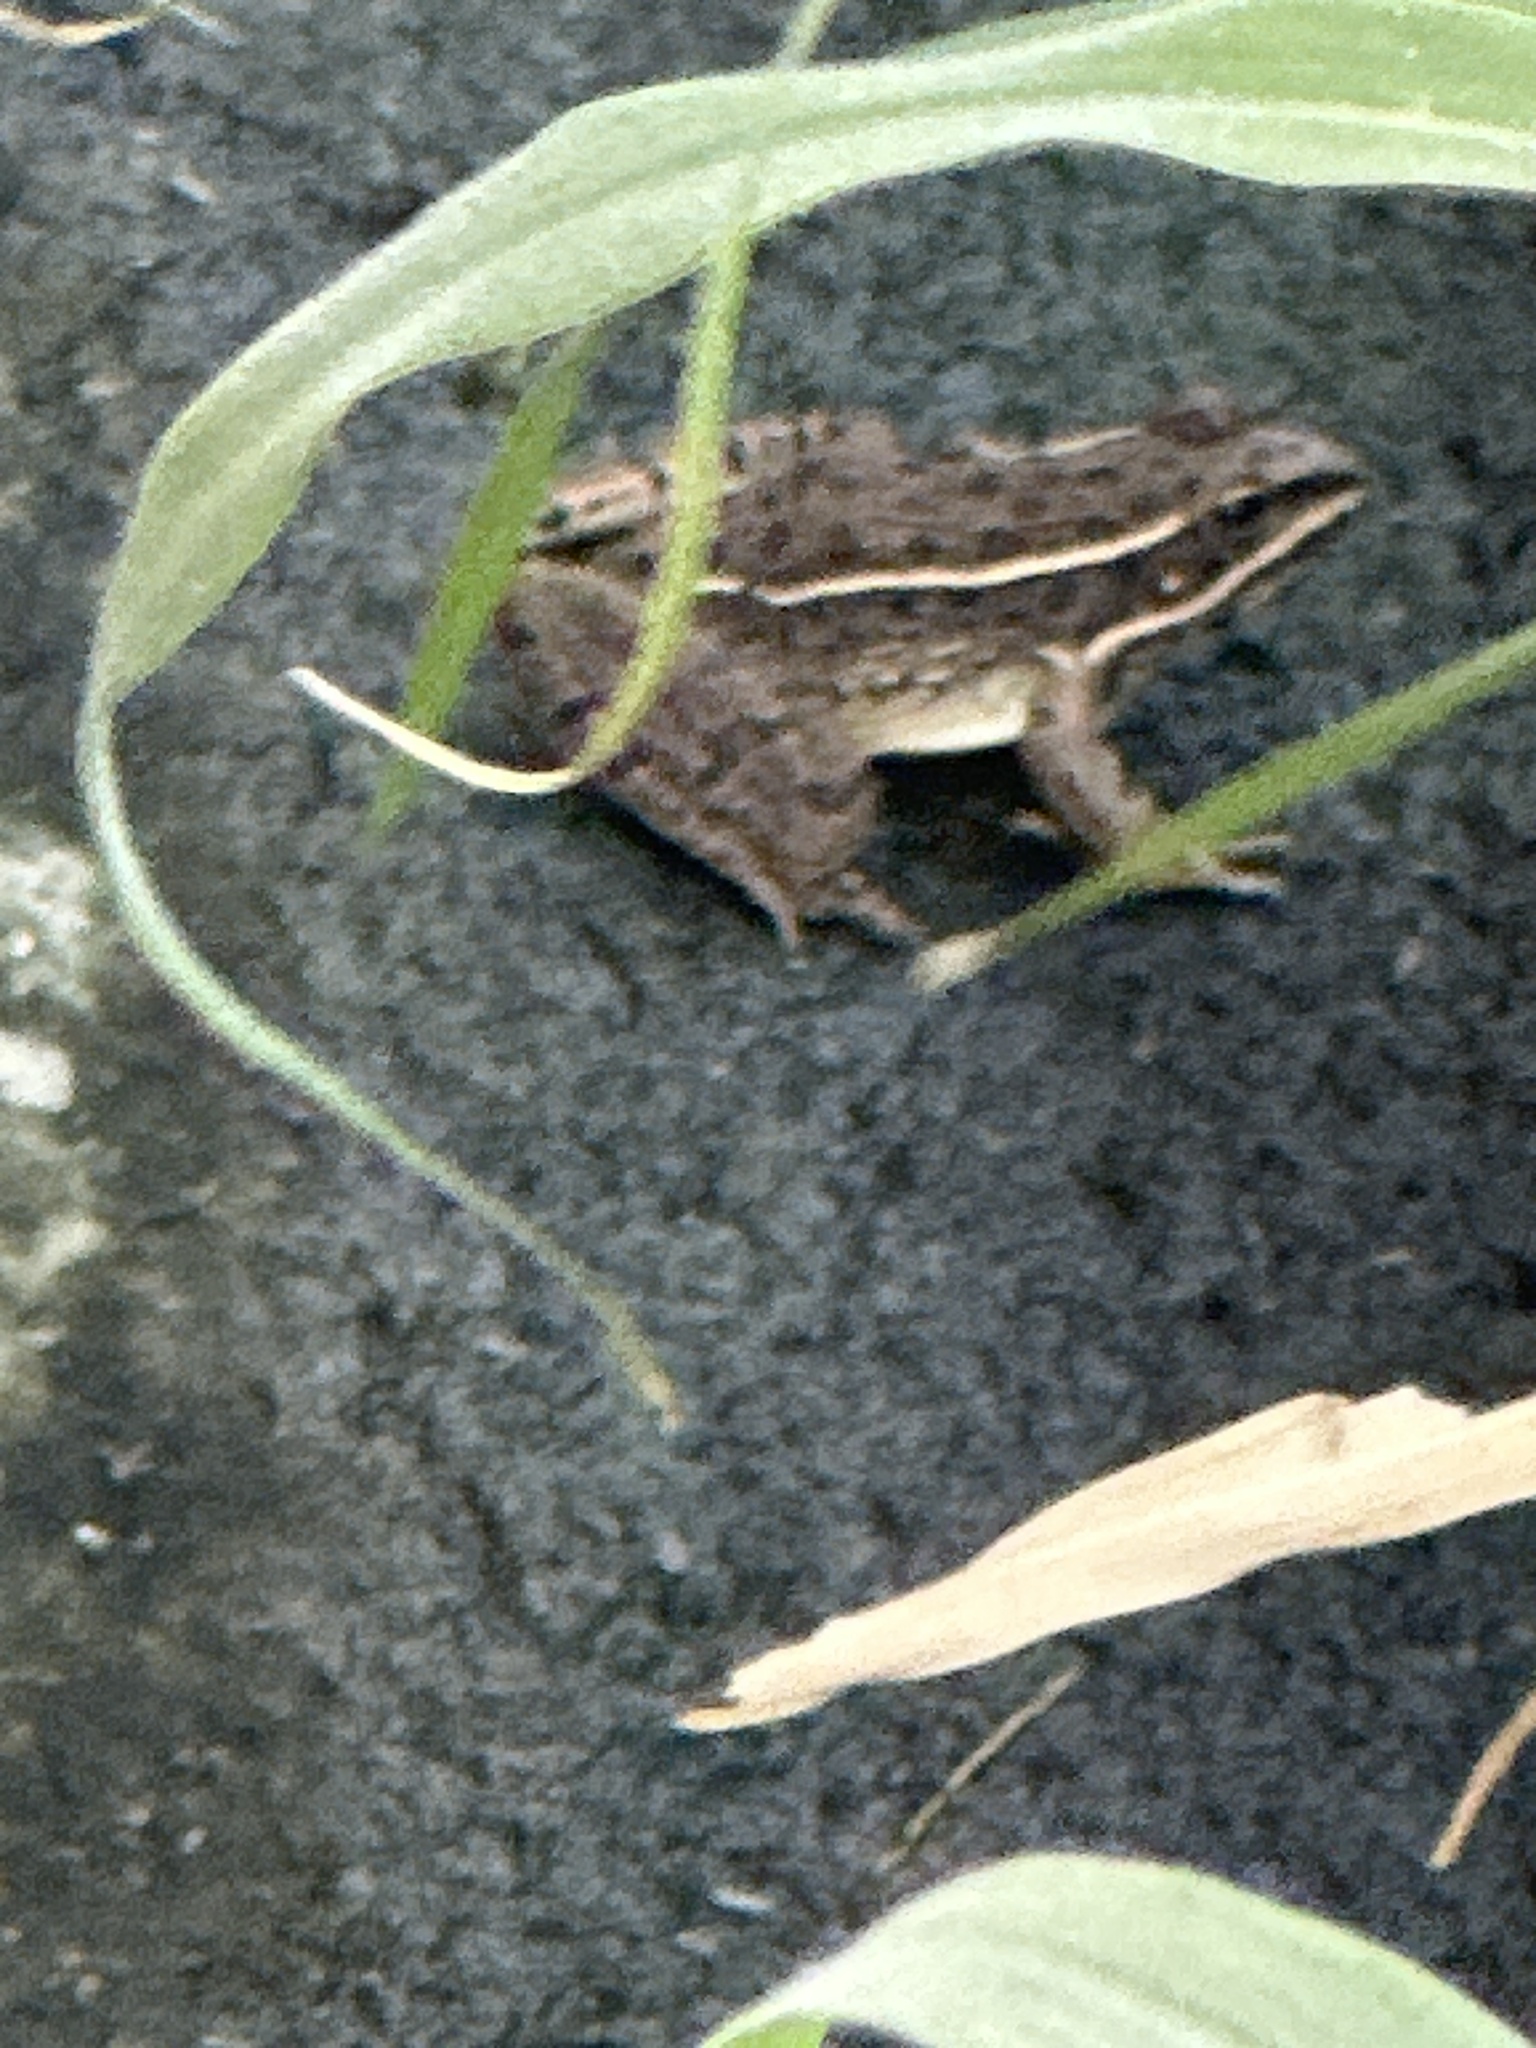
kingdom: Animalia
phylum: Chordata
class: Amphibia
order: Anura
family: Ranidae
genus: Lithobates
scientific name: Lithobates blairi
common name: Plains leopard frog
